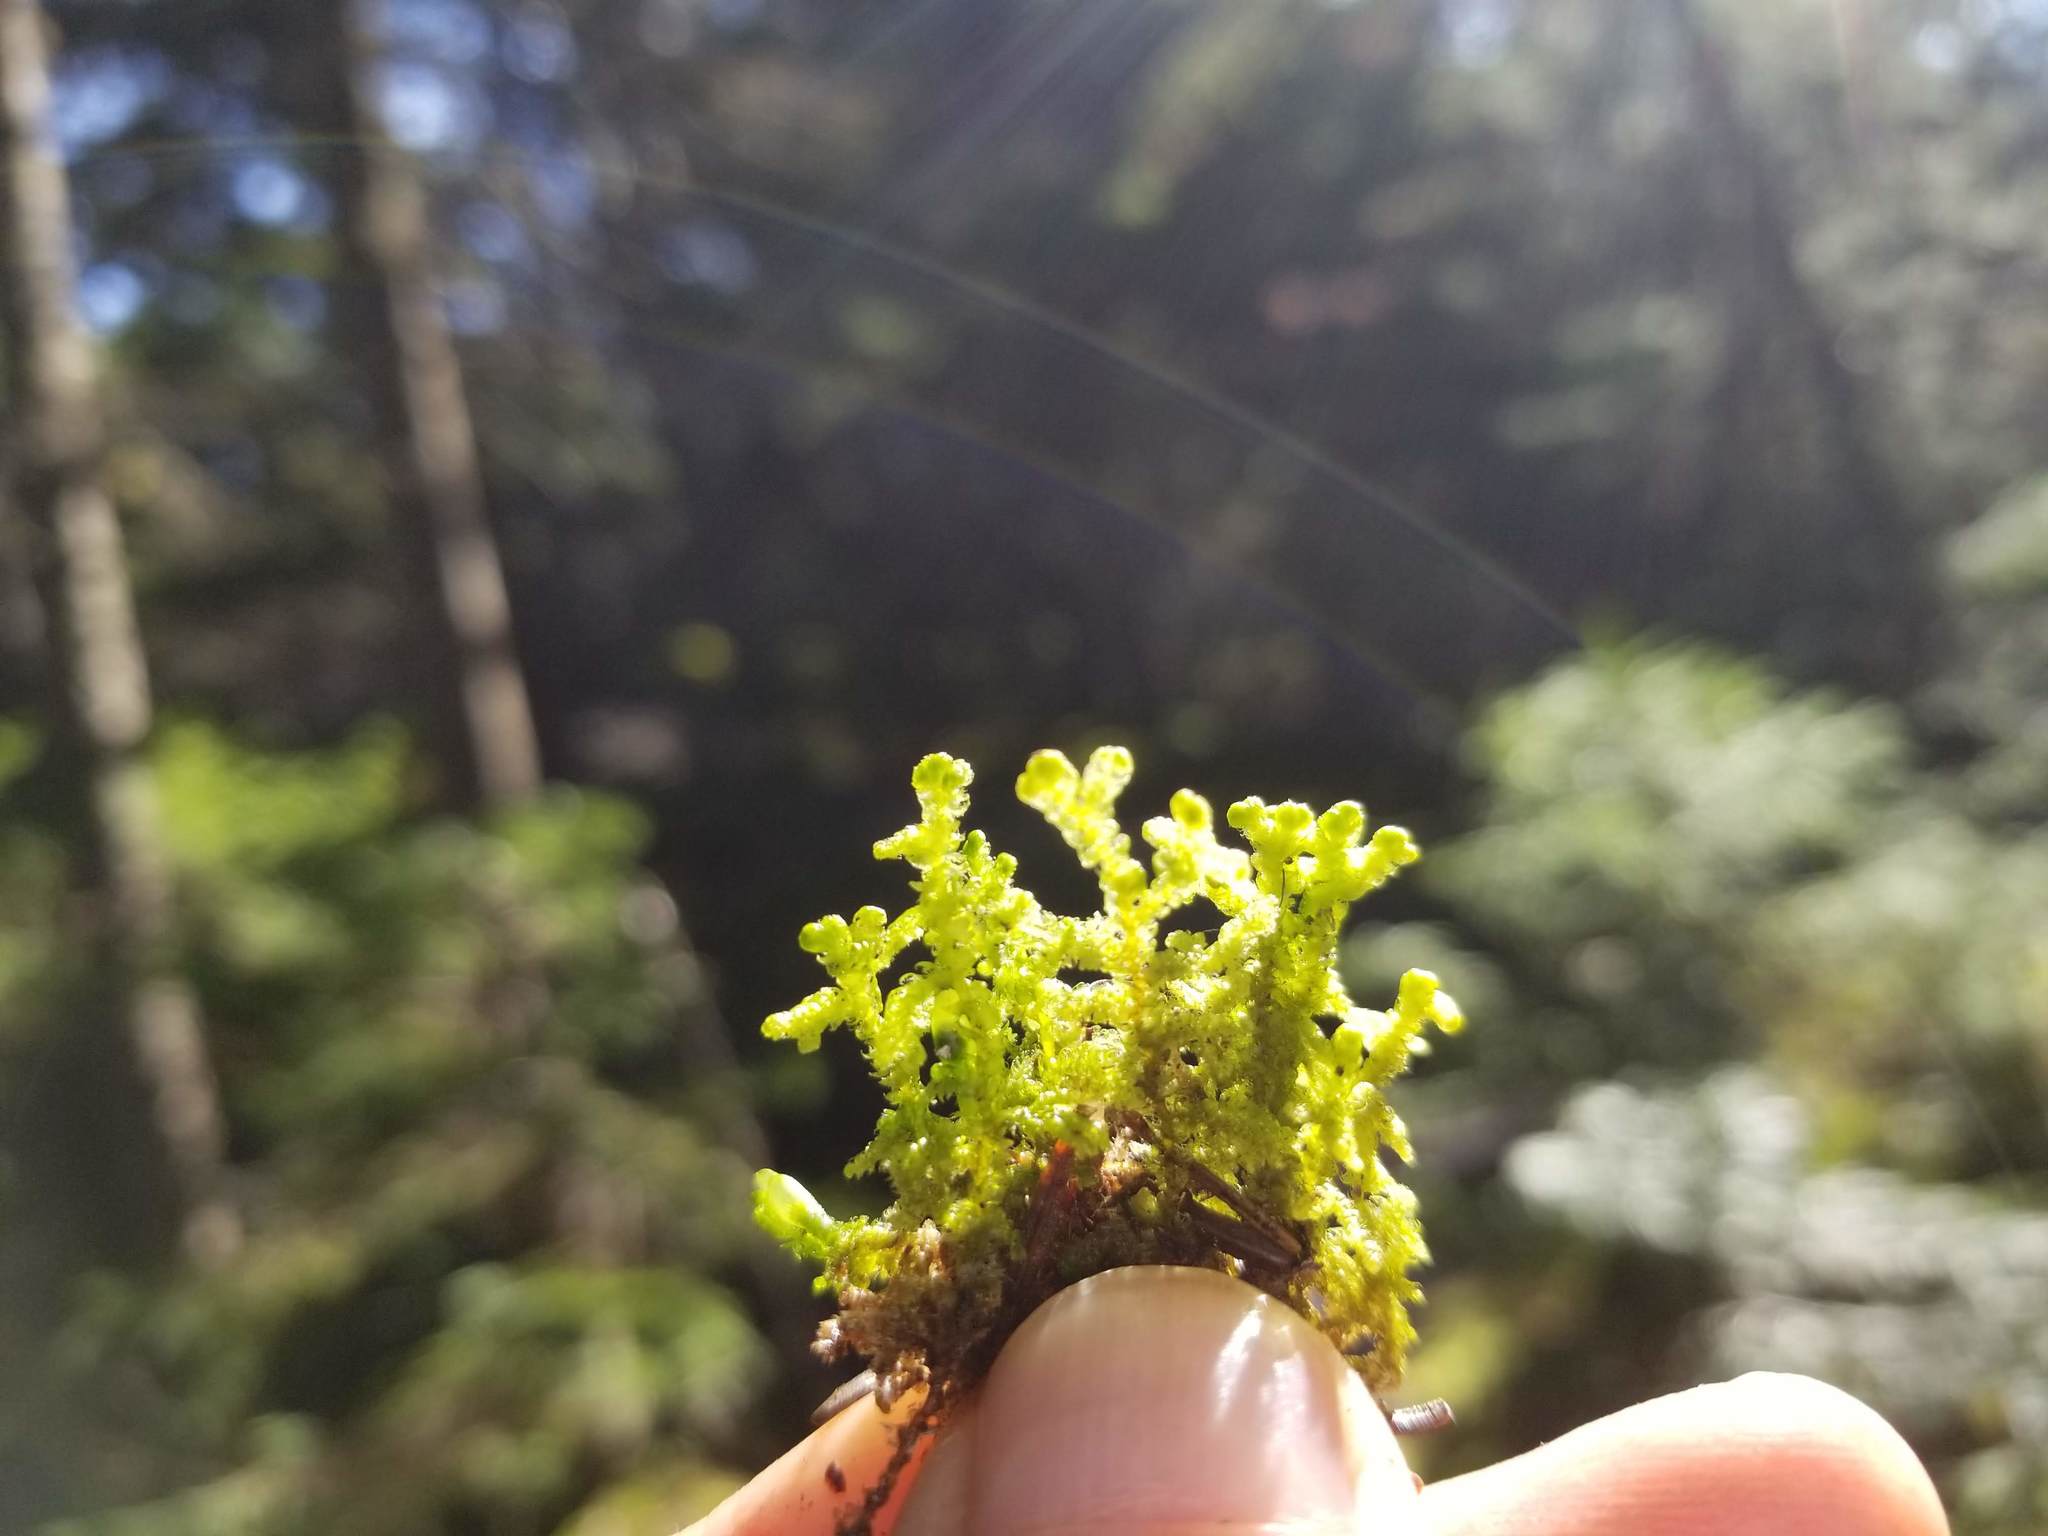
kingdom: Plantae
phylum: Marchantiophyta
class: Jungermanniopsida
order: Ptilidiales
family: Ptilidiaceae
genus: Ptilidium
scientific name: Ptilidium ciliare
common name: Ciliate fringewort
